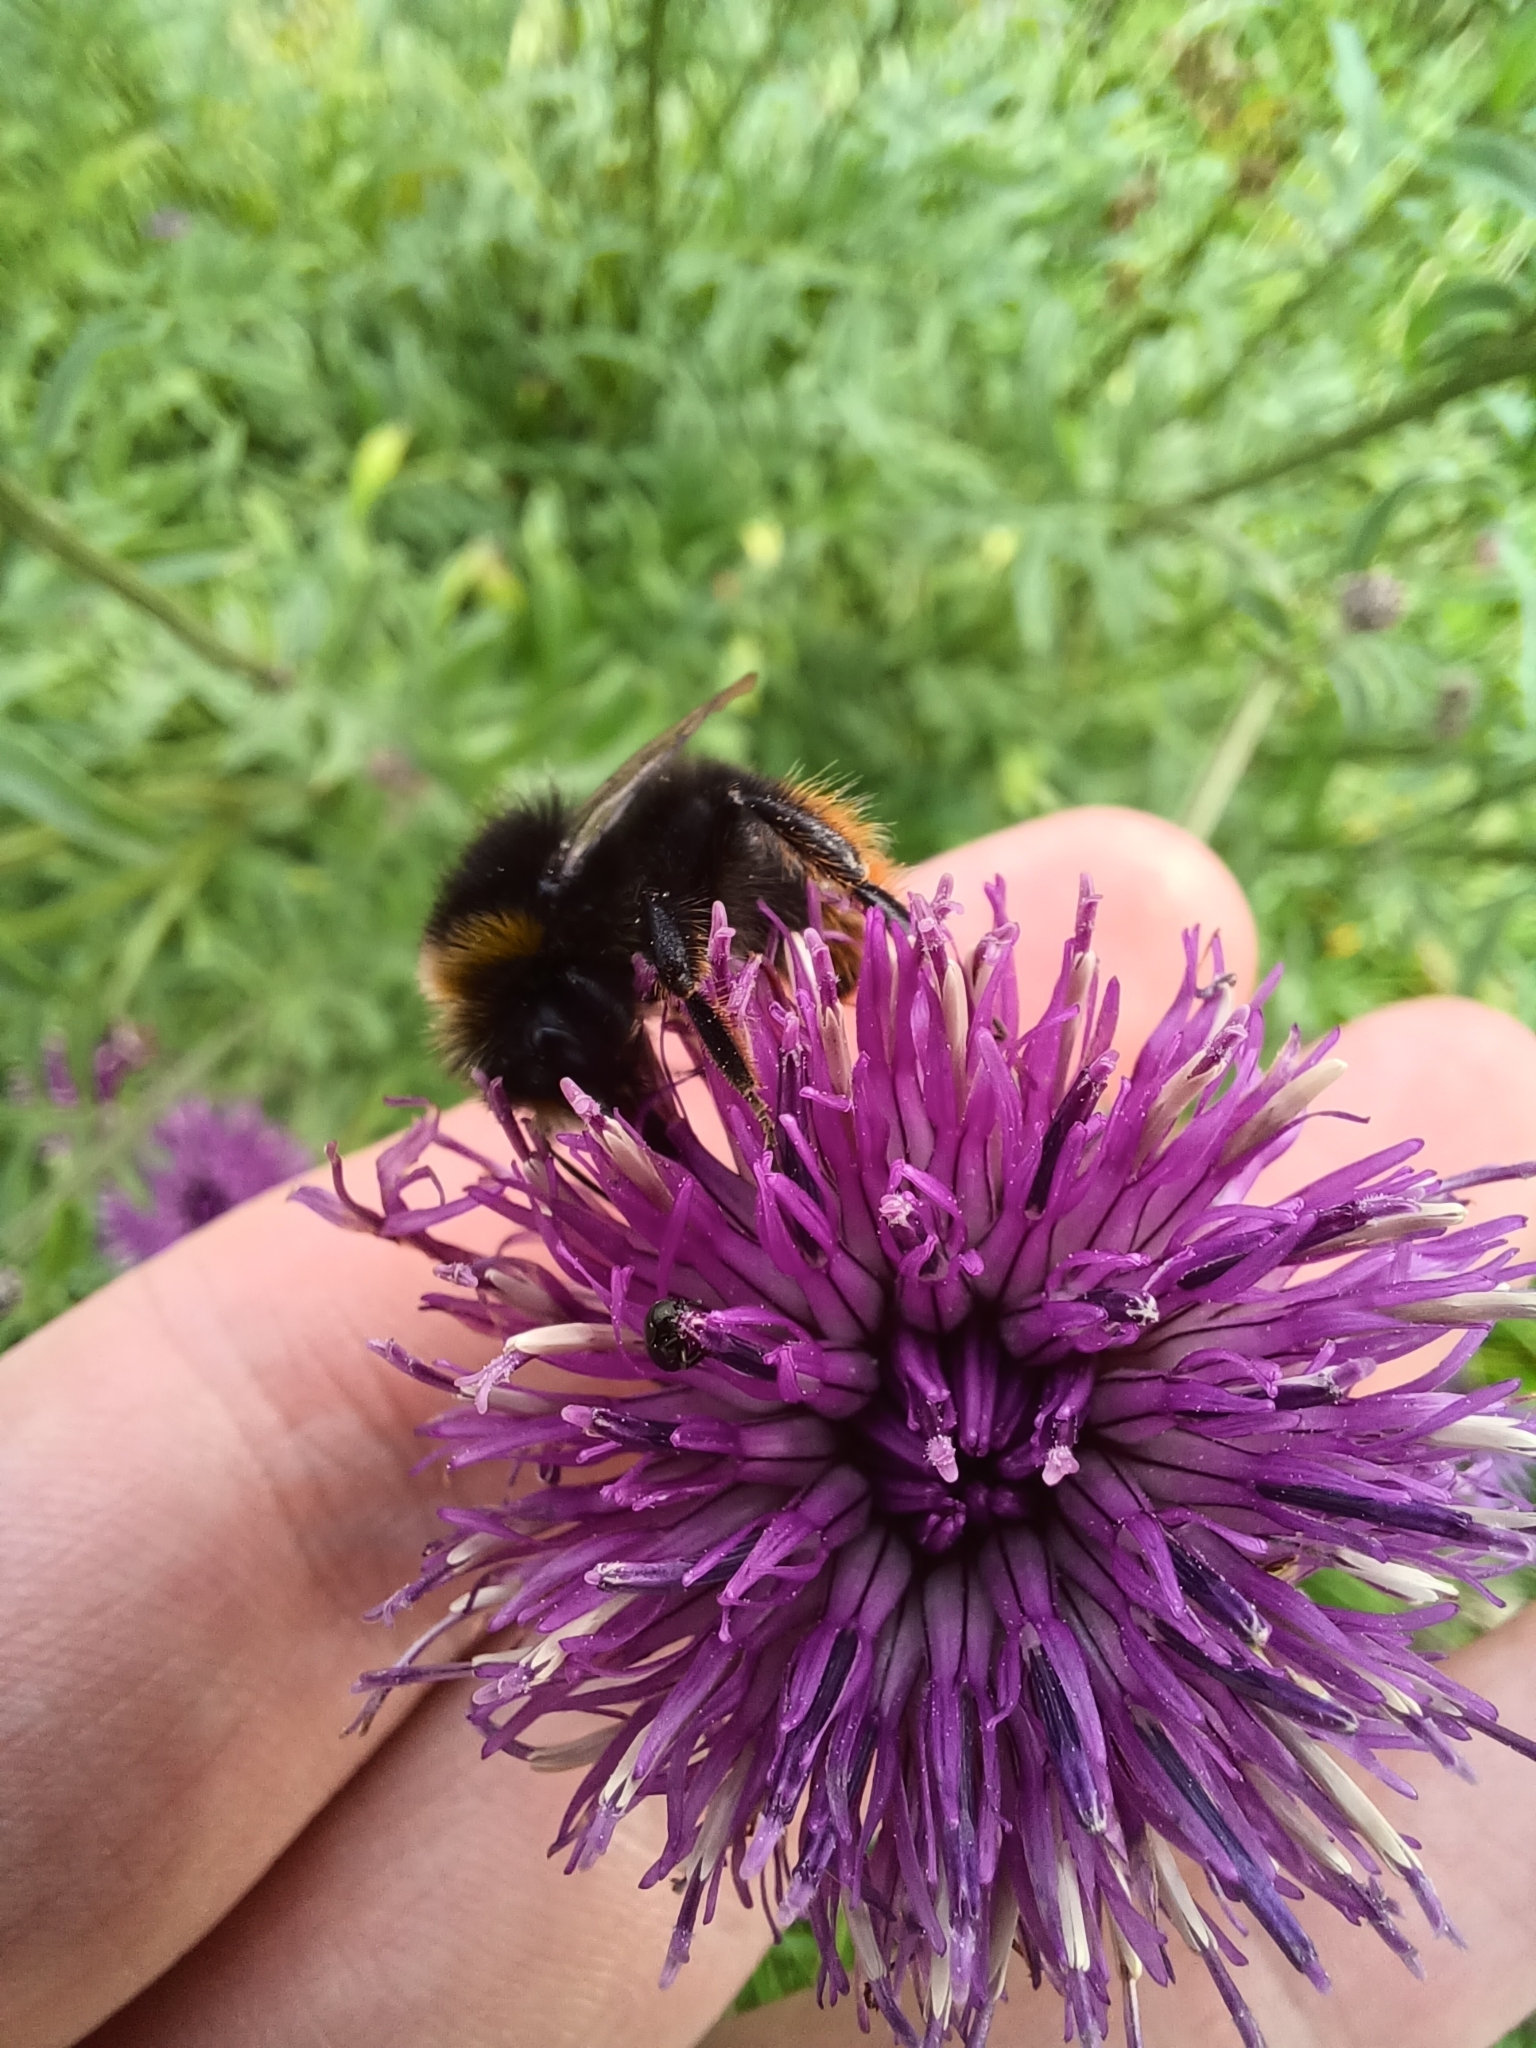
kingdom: Animalia
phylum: Arthropoda
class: Insecta
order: Hymenoptera
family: Apidae
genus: Bombus
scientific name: Bombus lapidarius
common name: Large red-tailed humble-bee
